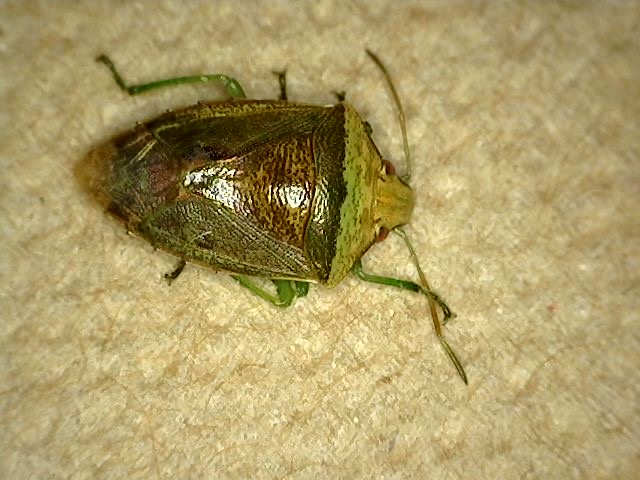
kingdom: Animalia
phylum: Arthropoda
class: Insecta
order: Hemiptera
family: Pentatomidae
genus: Banasa
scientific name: Banasa calva
